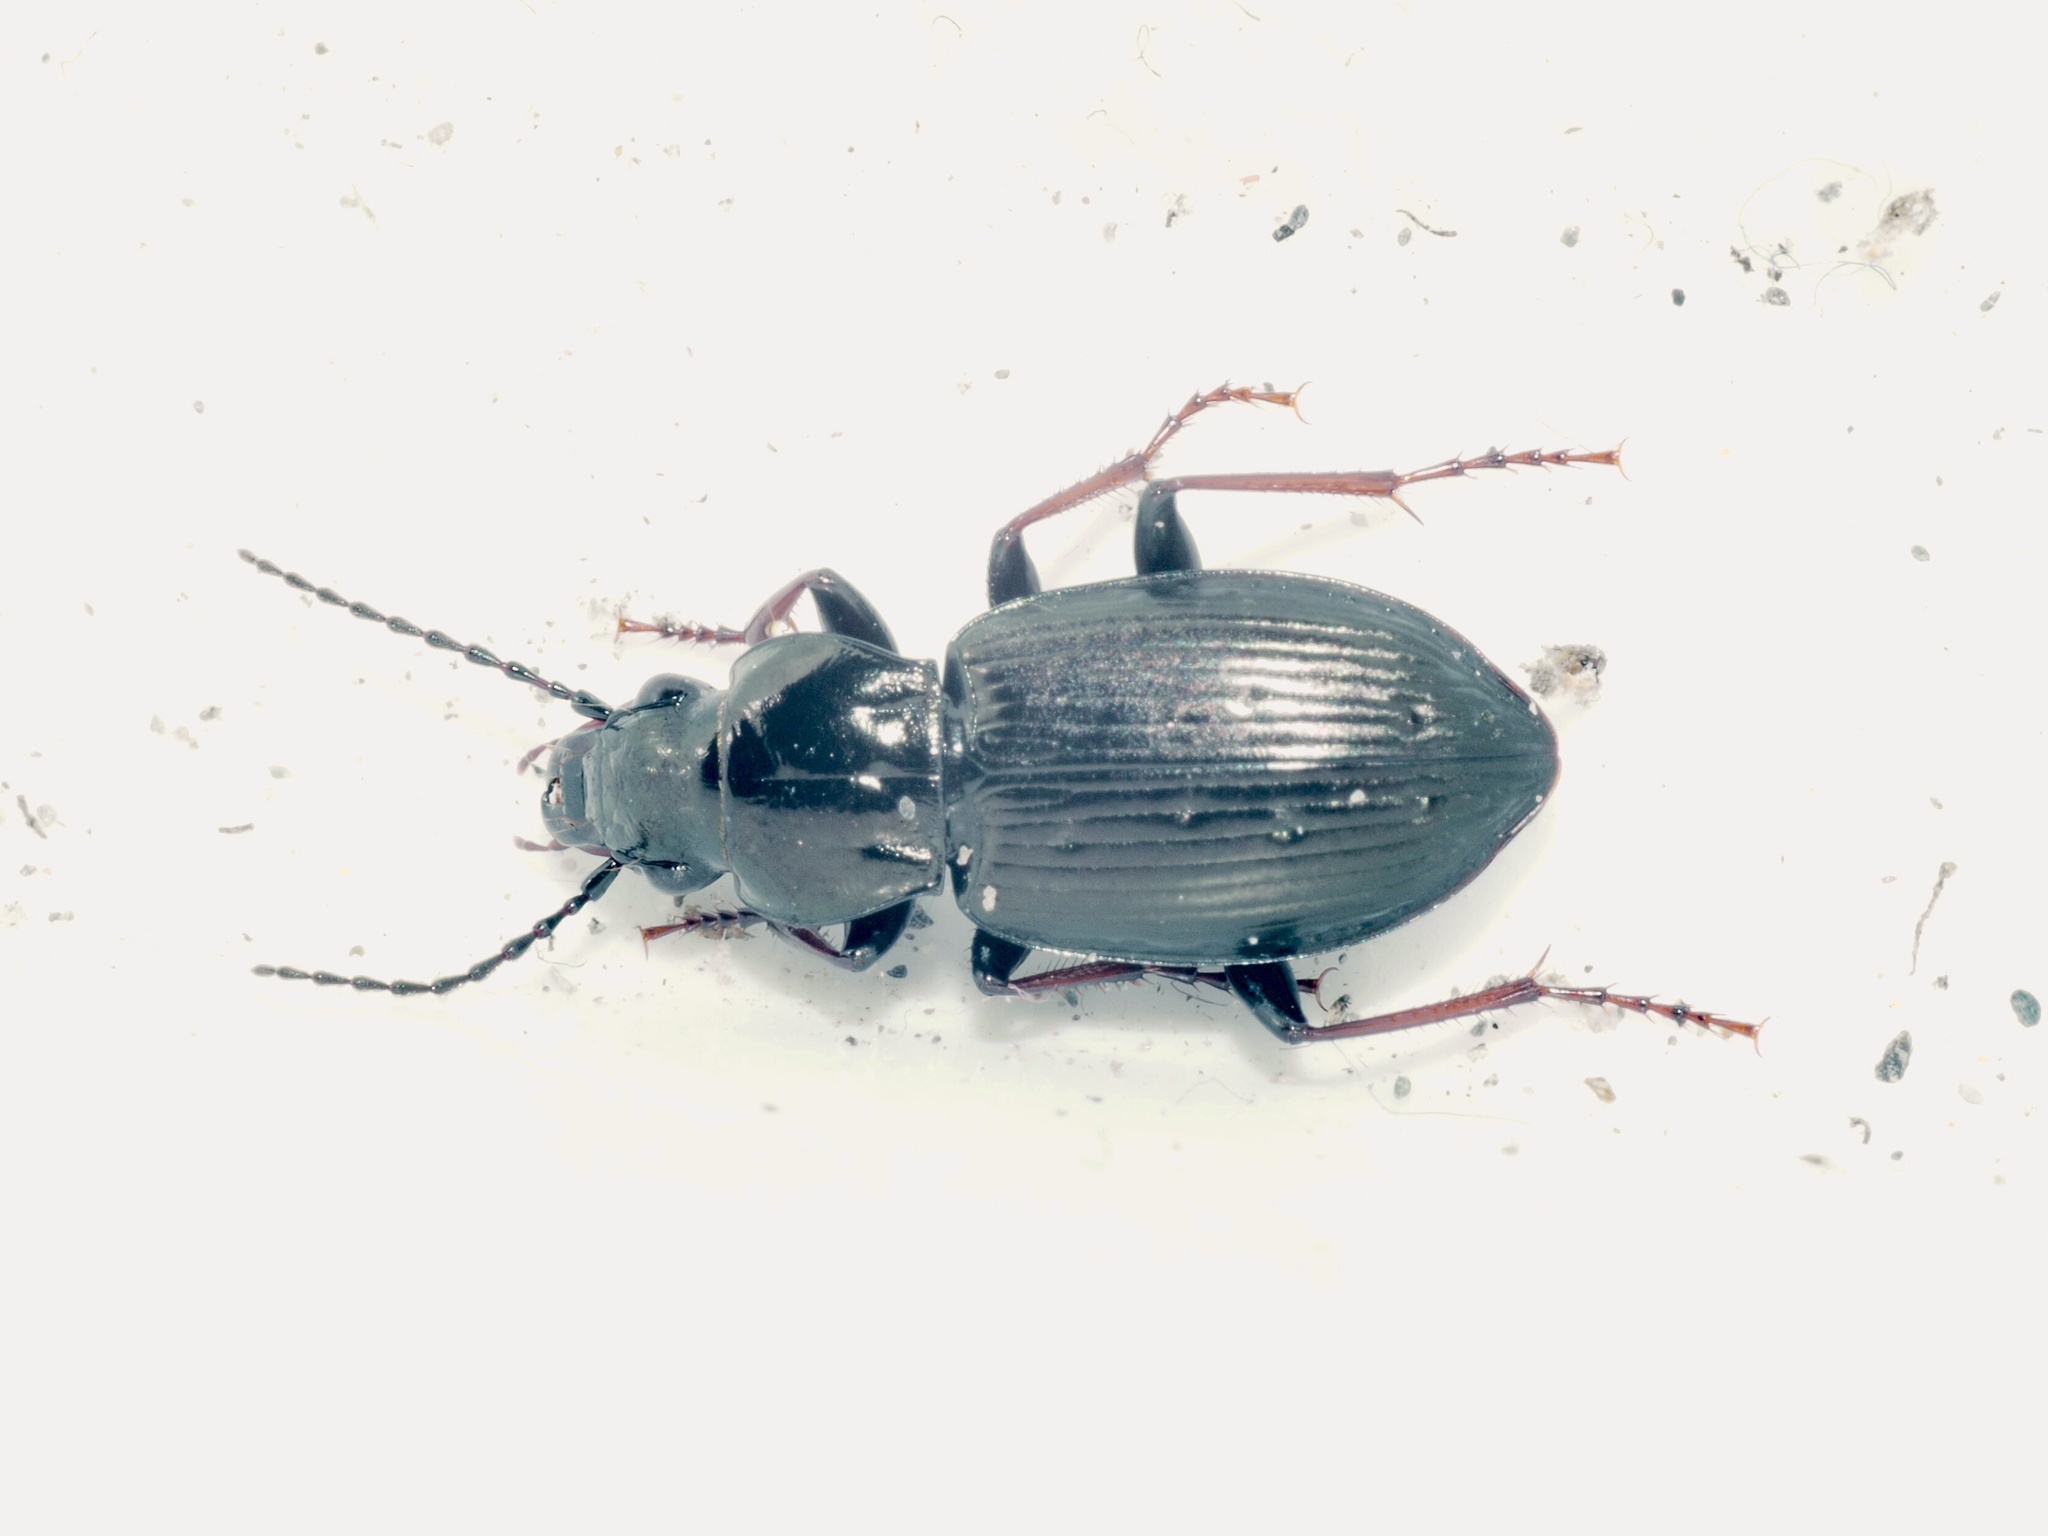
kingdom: Animalia
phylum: Arthropoda
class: Insecta
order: Coleoptera
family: Carabidae
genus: Pterostichus
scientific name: Pterostichus oblongopunctatus
